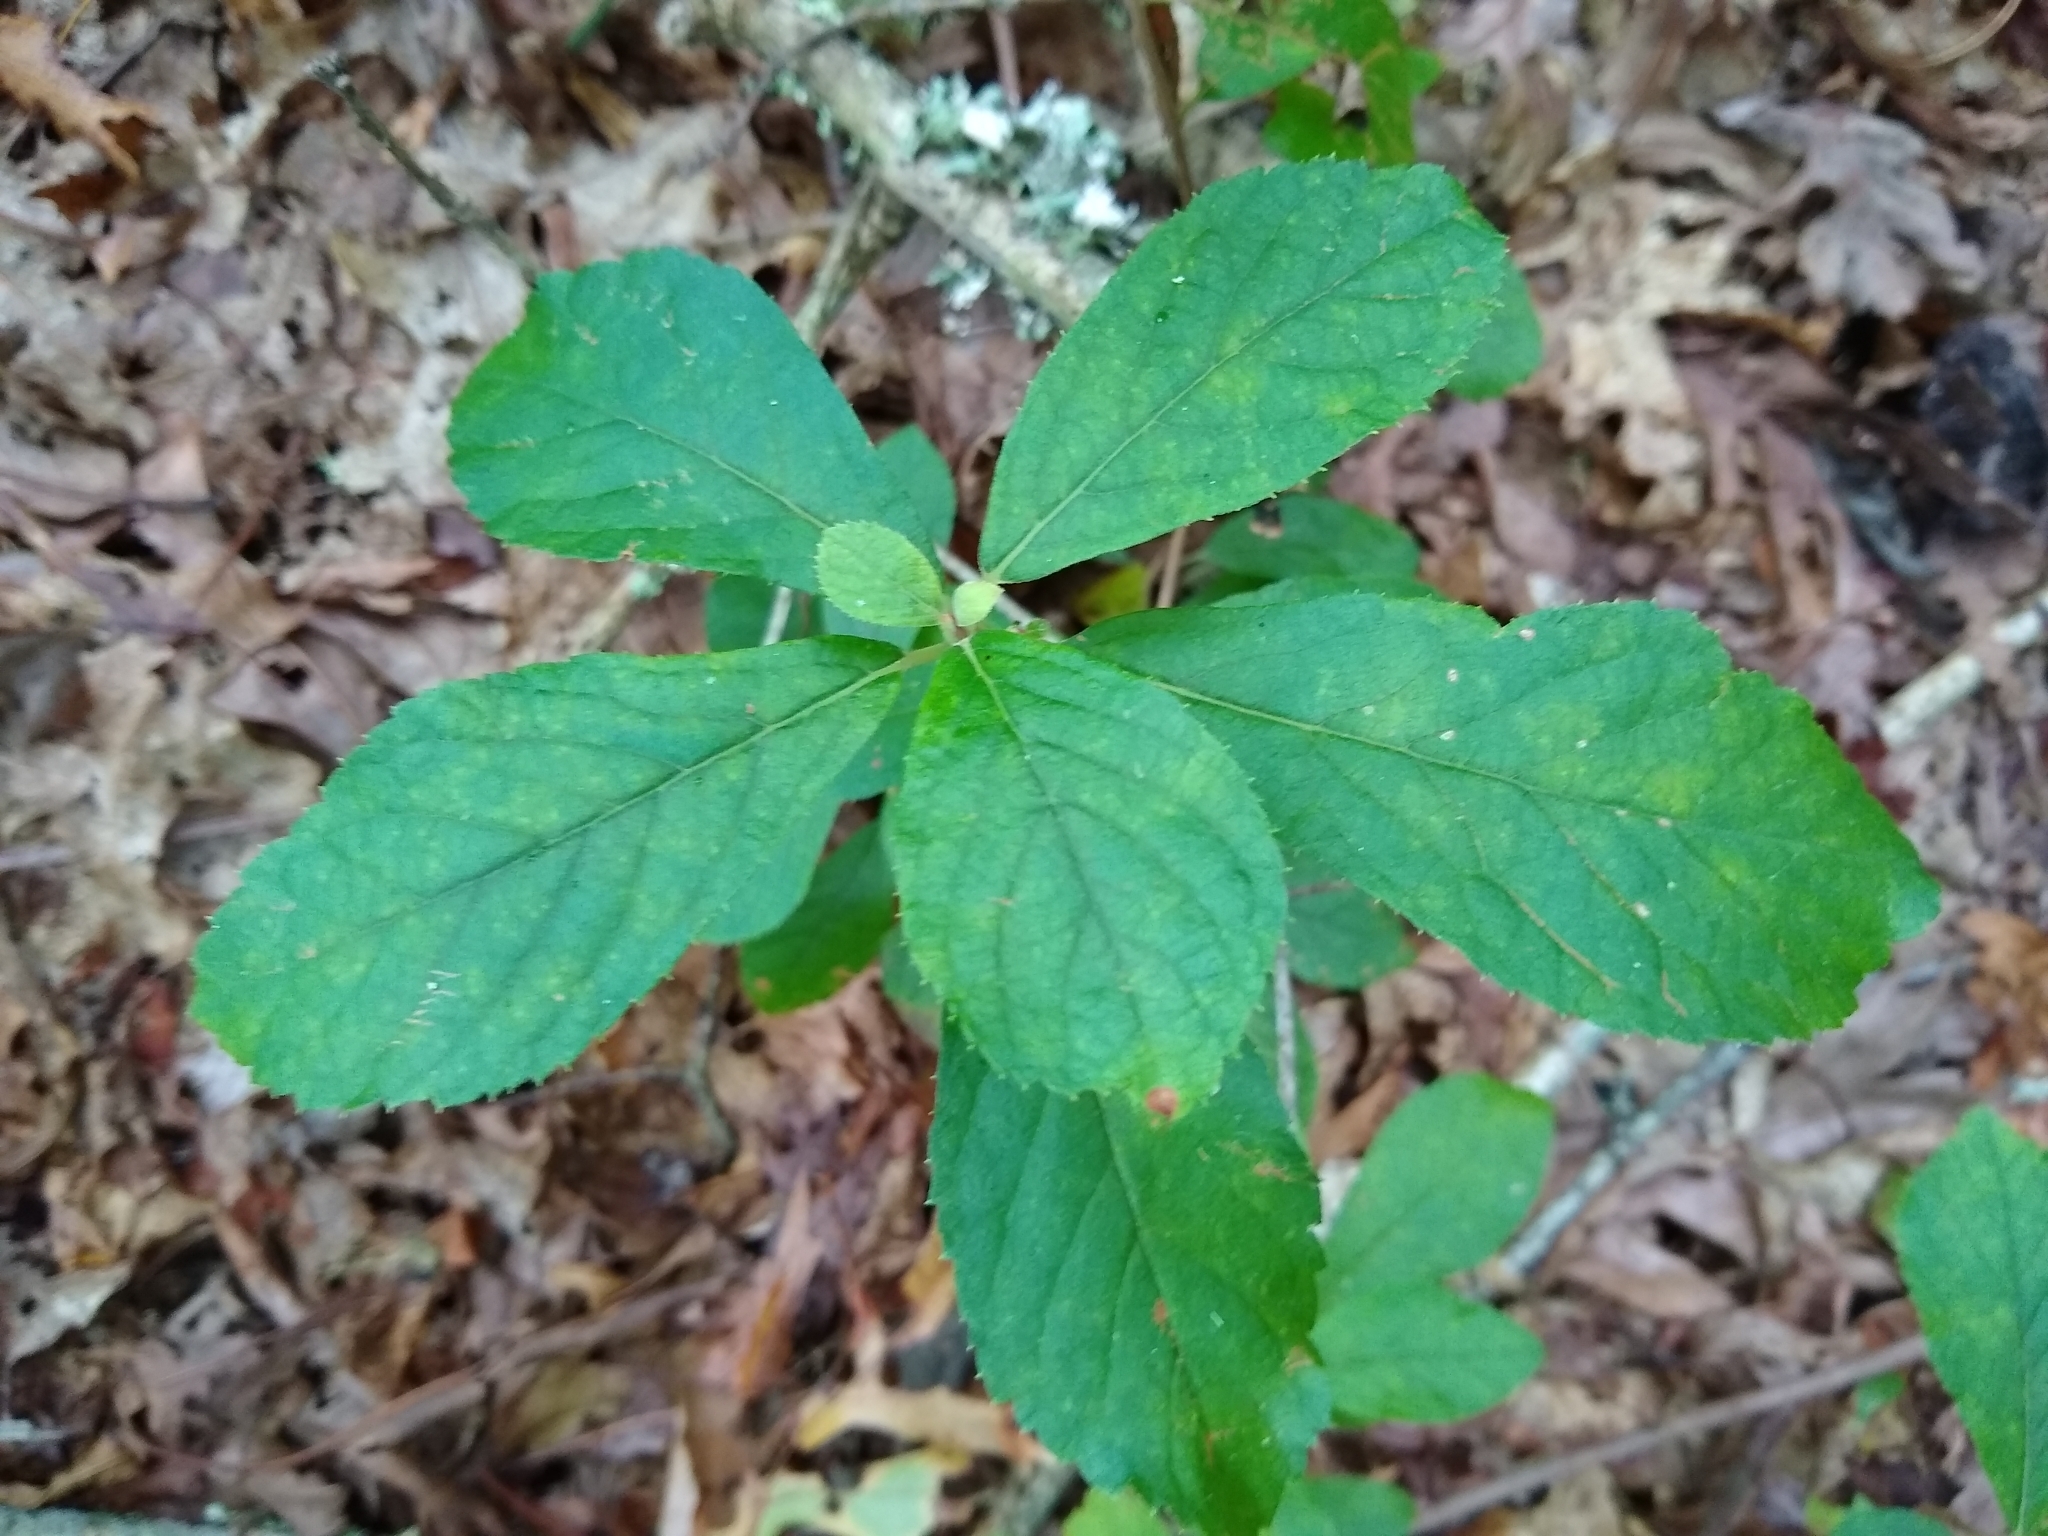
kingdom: Plantae
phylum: Tracheophyta
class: Magnoliopsida
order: Ericales
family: Clethraceae
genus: Clethra
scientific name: Clethra alnifolia
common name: Sweet pepperbush
